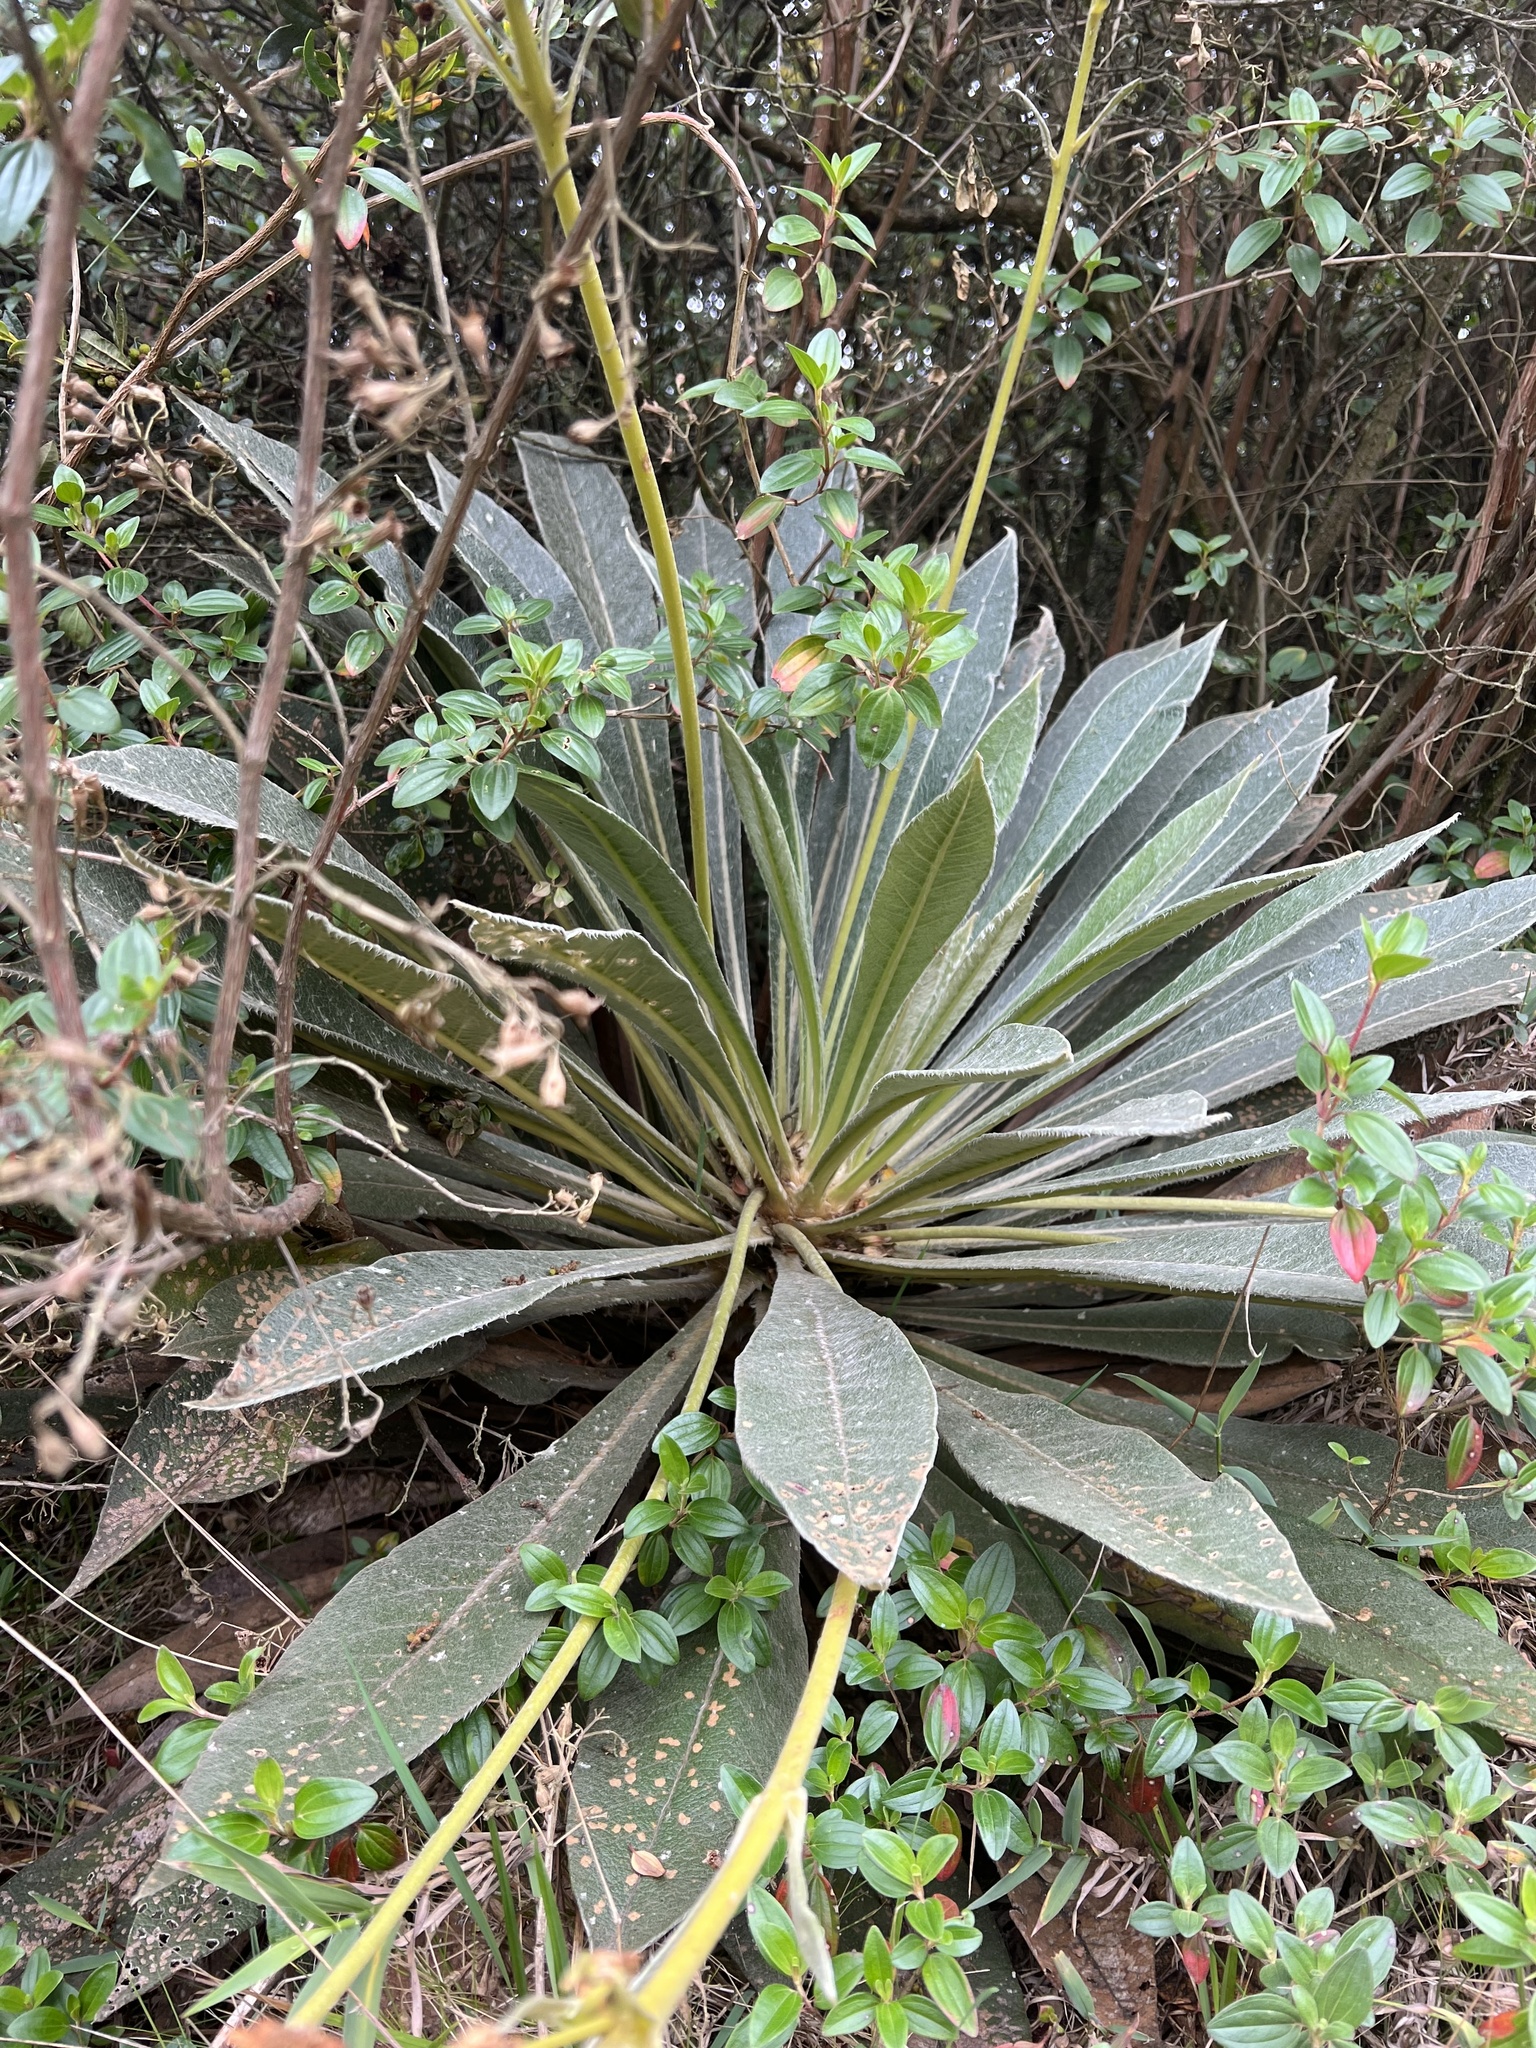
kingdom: Plantae
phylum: Tracheophyta
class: Magnoliopsida
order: Asterales
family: Asteraceae
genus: Espeletia
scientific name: Espeletia corymbosa
